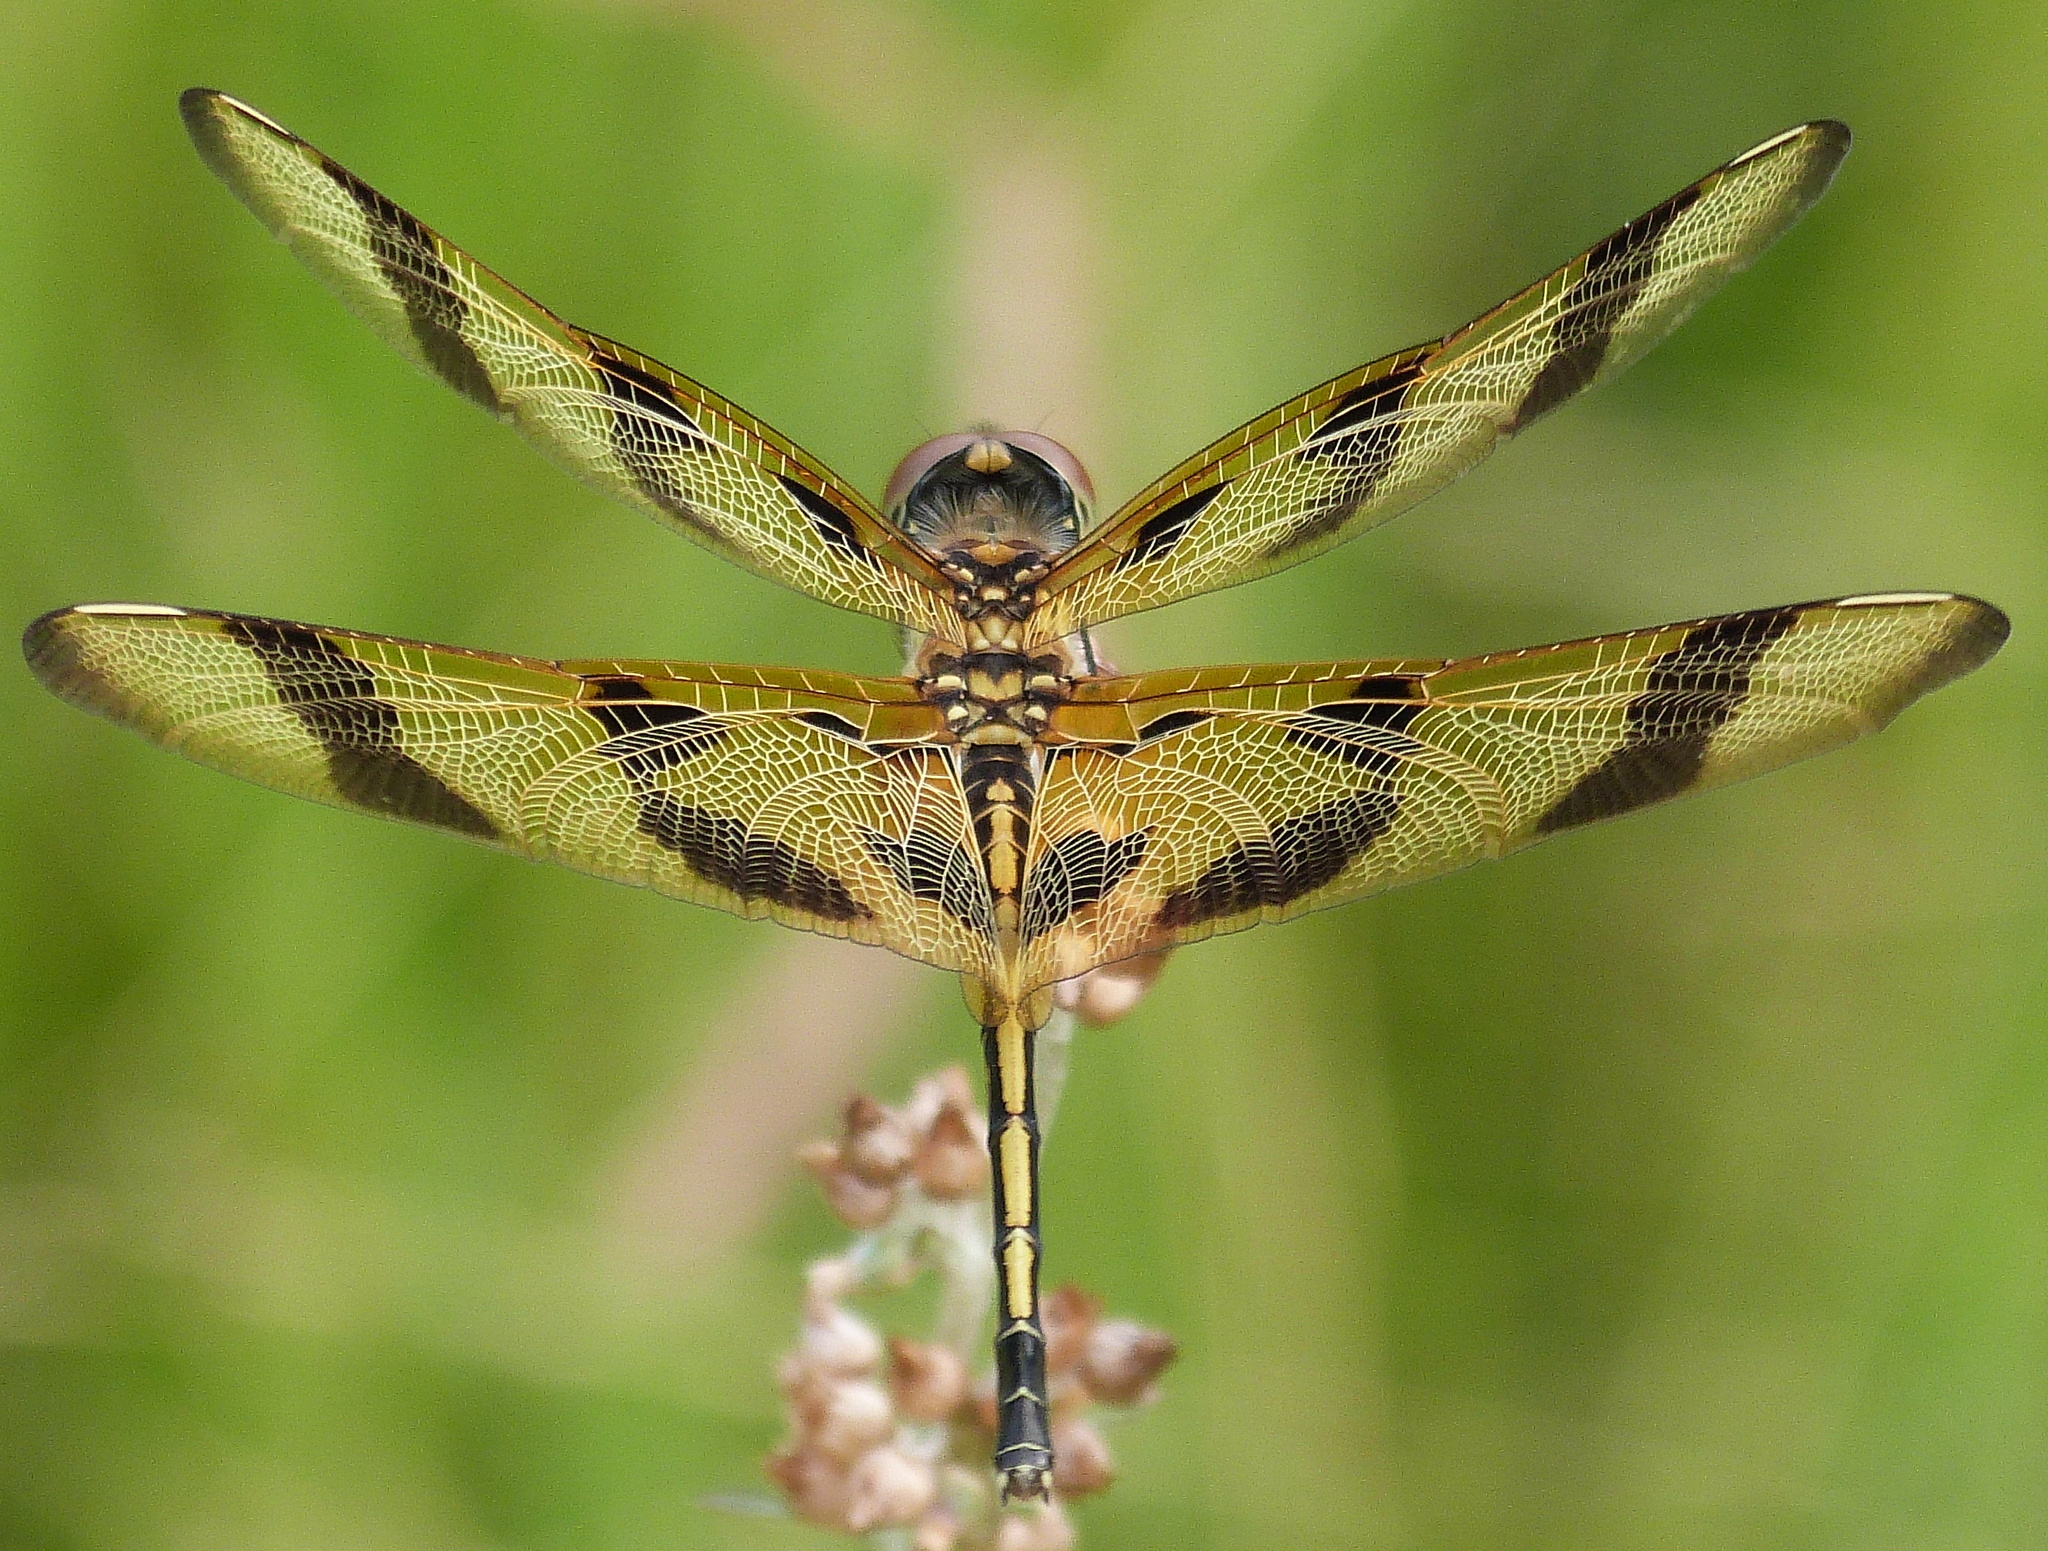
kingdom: Animalia
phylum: Arthropoda
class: Insecta
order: Odonata
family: Libellulidae
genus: Celithemis
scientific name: Celithemis eponina
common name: Halloween pennant
